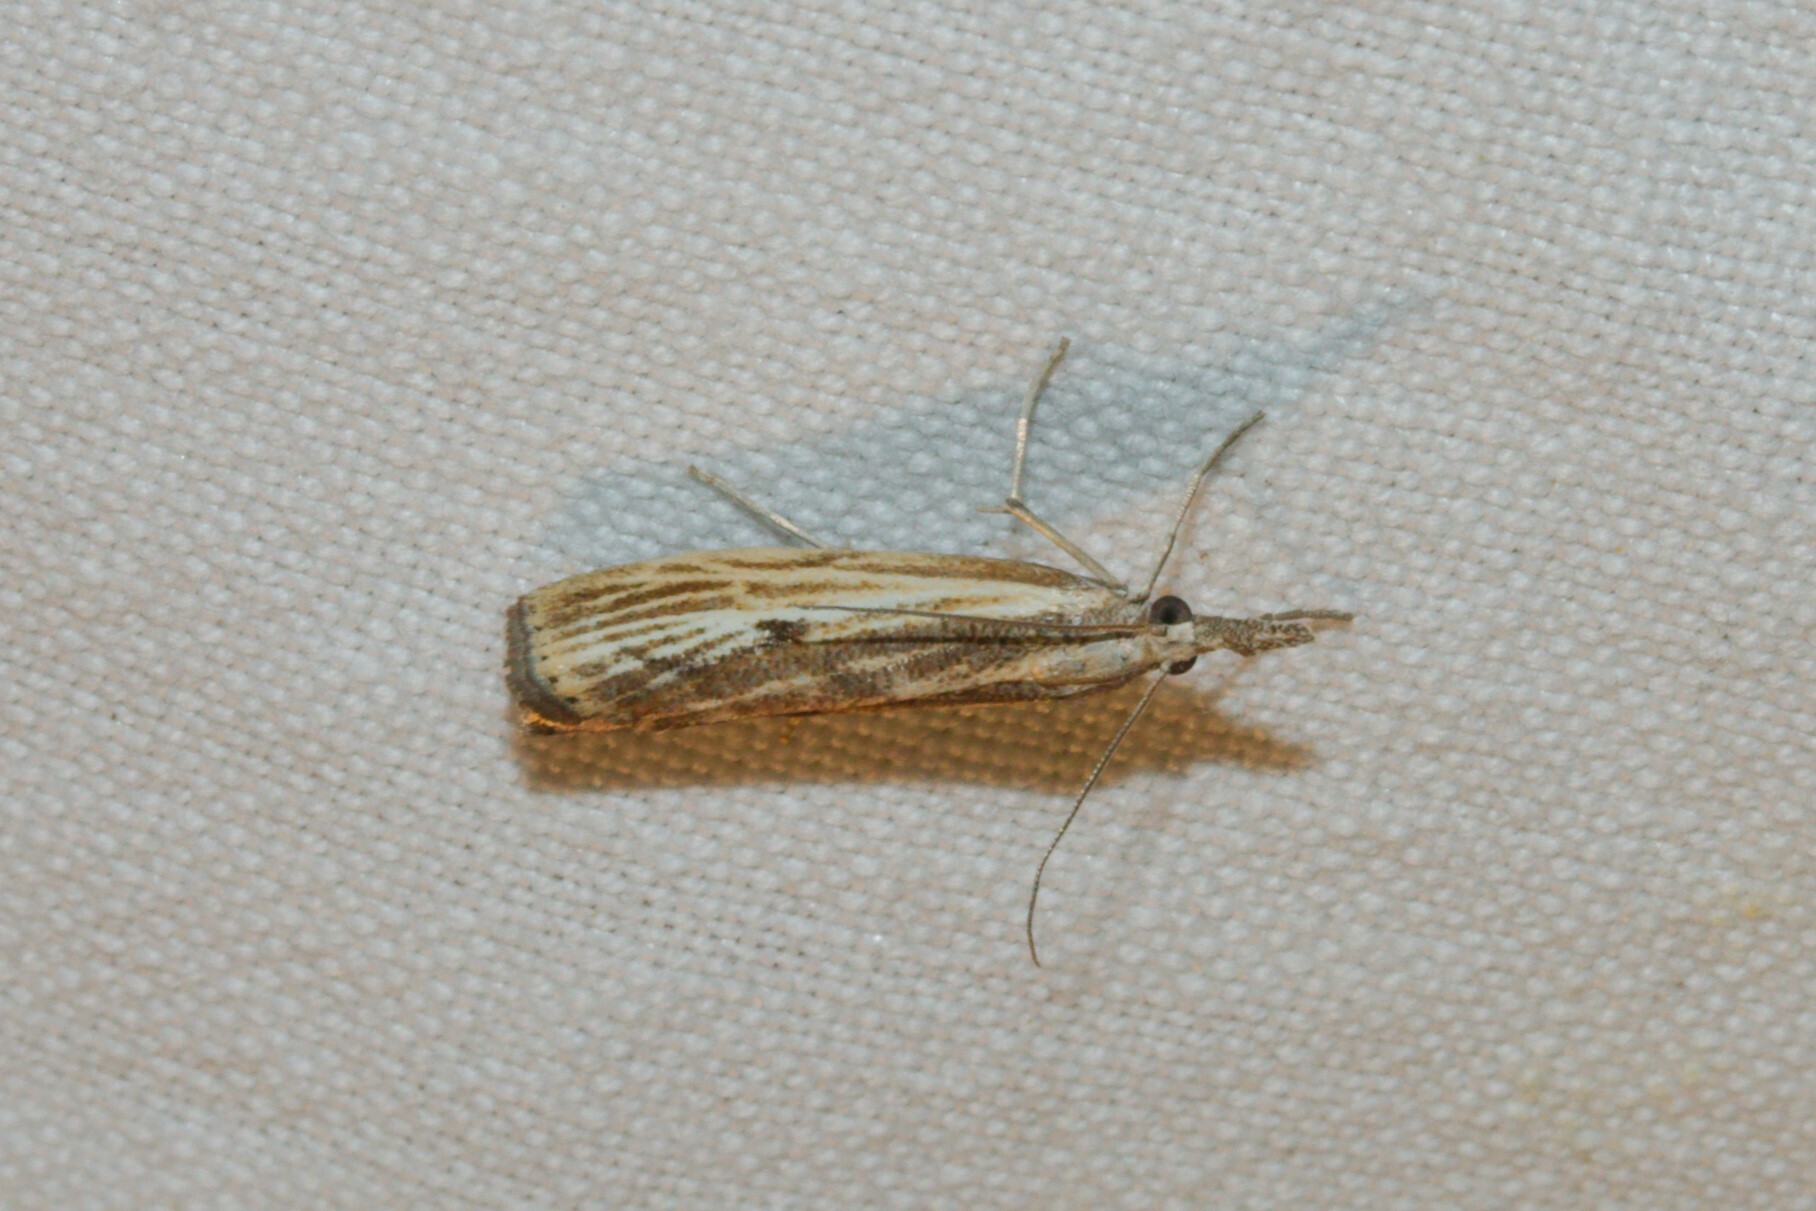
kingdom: Animalia
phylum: Arthropoda
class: Insecta
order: Lepidoptera
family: Crambidae
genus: Agriphila
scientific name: Agriphila inquinatella
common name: Barred grass-veneer
